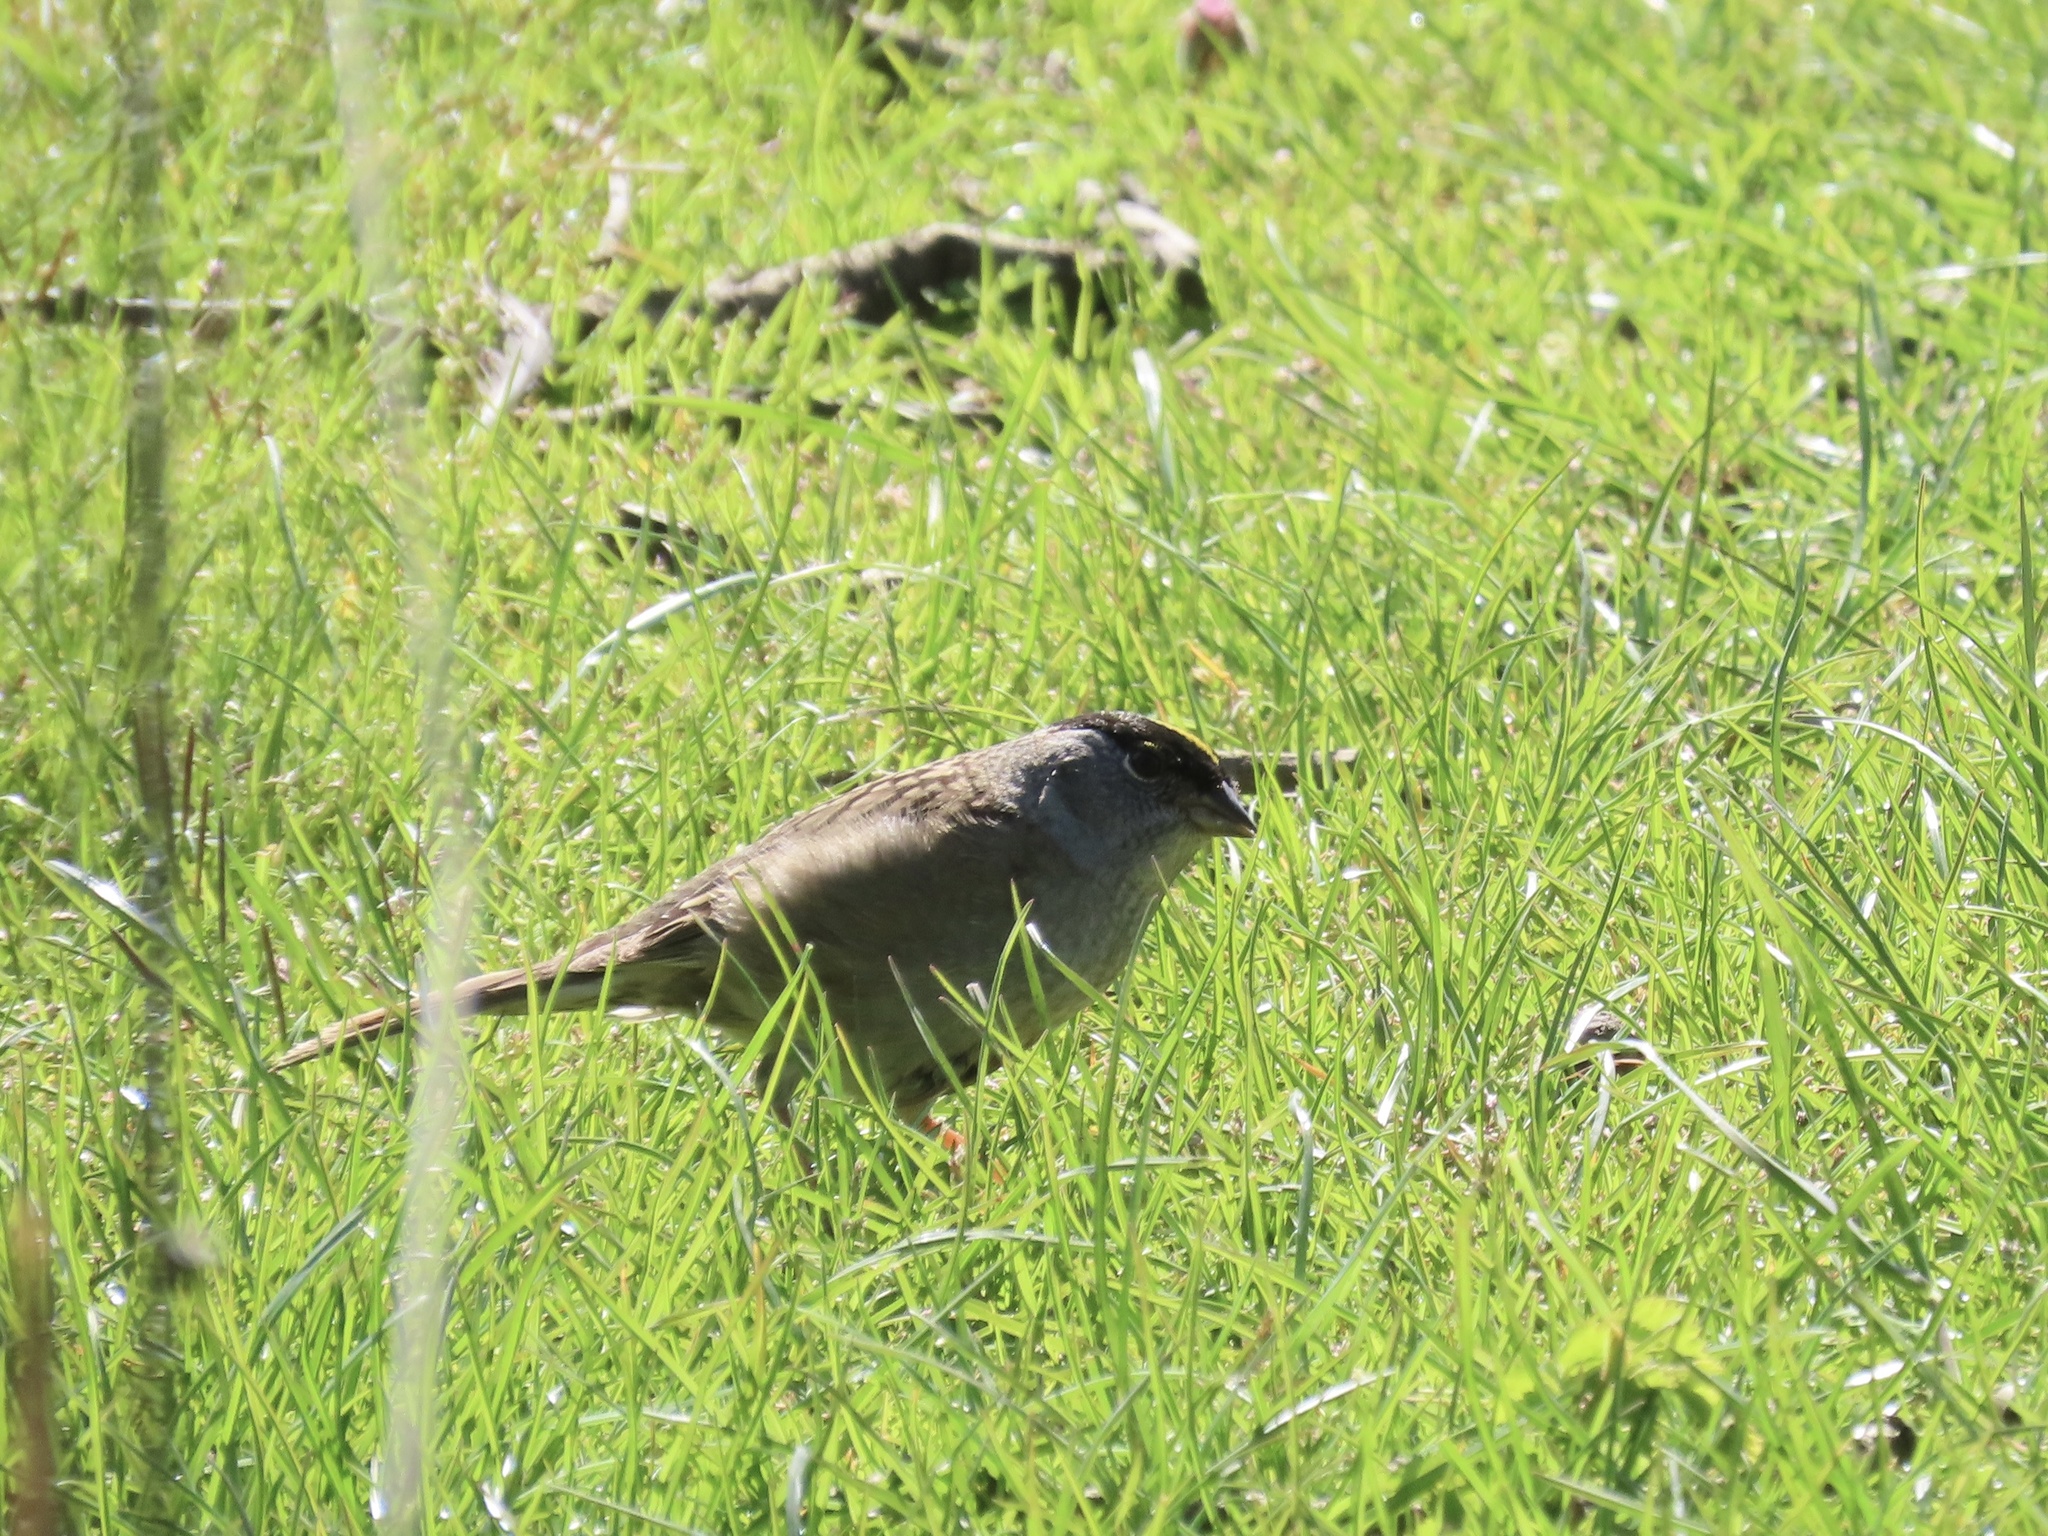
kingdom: Animalia
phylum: Chordata
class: Aves
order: Passeriformes
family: Passerellidae
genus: Zonotrichia
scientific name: Zonotrichia atricapilla
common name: Golden-crowned sparrow
